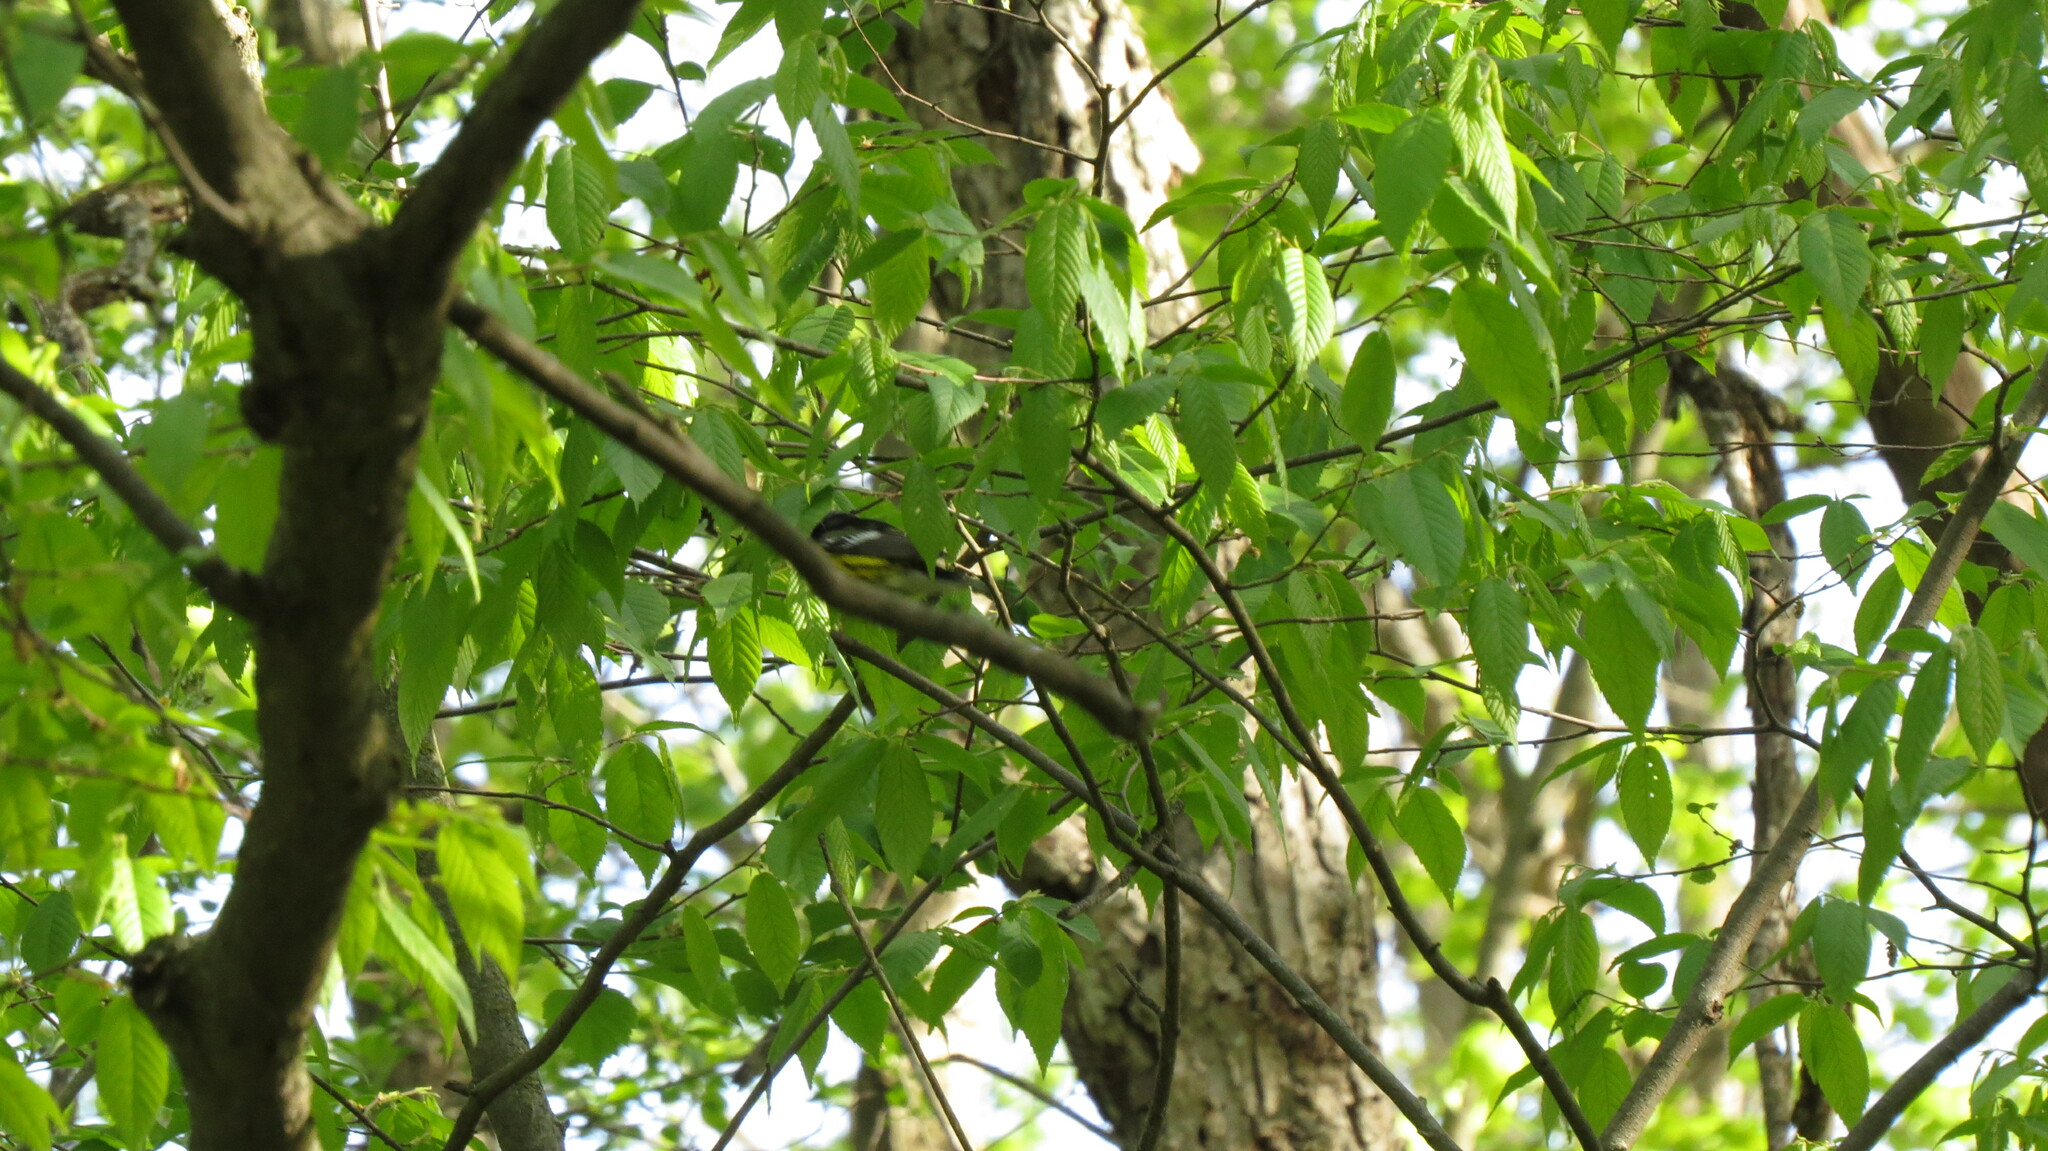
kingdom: Animalia
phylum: Chordata
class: Aves
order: Passeriformes
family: Parulidae
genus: Setophaga
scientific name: Setophaga magnolia
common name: Magnolia warbler
